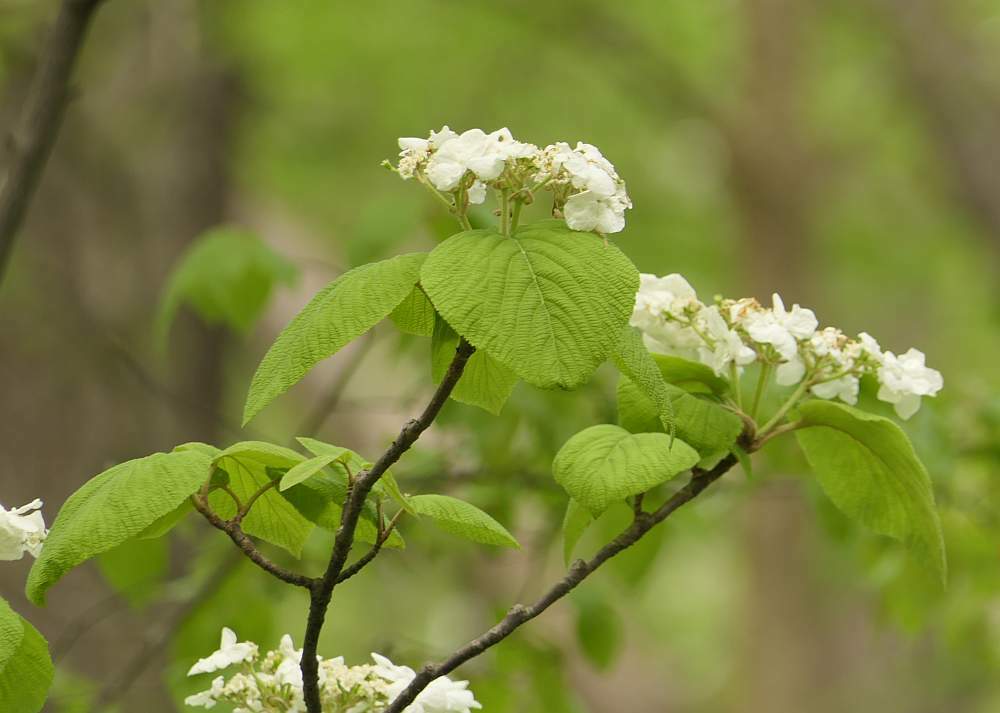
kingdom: Plantae
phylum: Tracheophyta
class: Magnoliopsida
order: Dipsacales
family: Viburnaceae
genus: Viburnum
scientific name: Viburnum lantanoides
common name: Hobblebush
